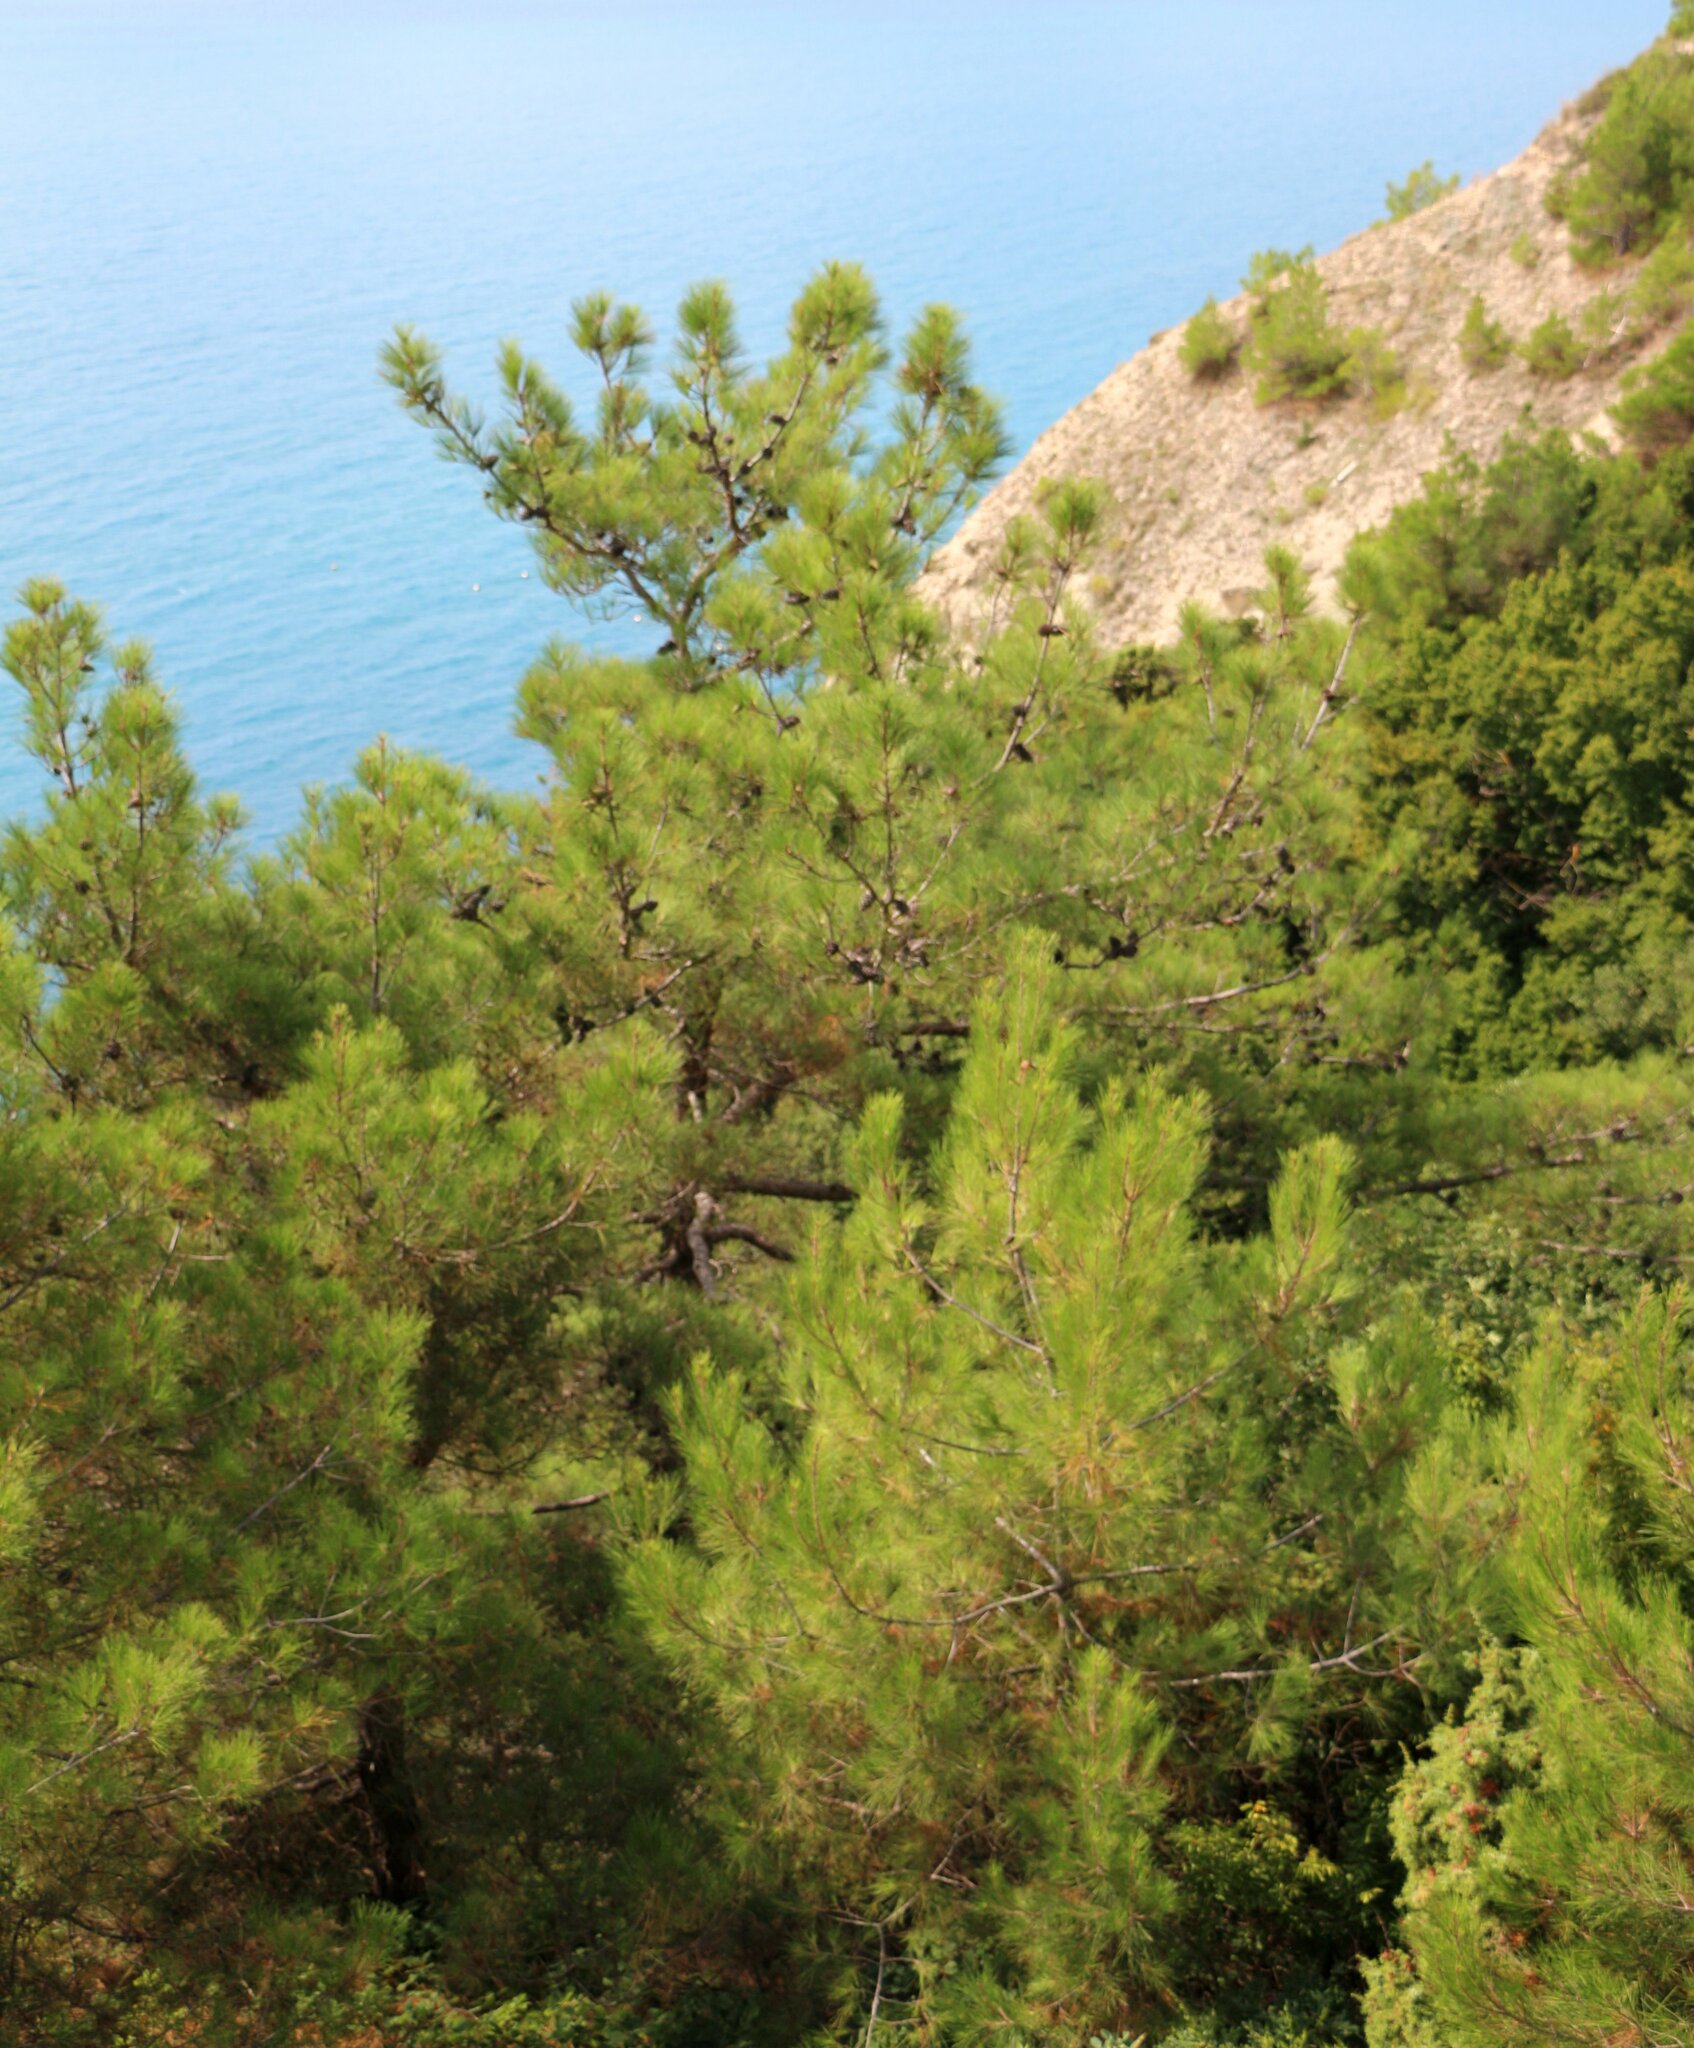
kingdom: Plantae
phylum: Tracheophyta
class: Pinopsida
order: Pinales
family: Pinaceae
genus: Pinus
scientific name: Pinus brutia
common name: Turkish pine
